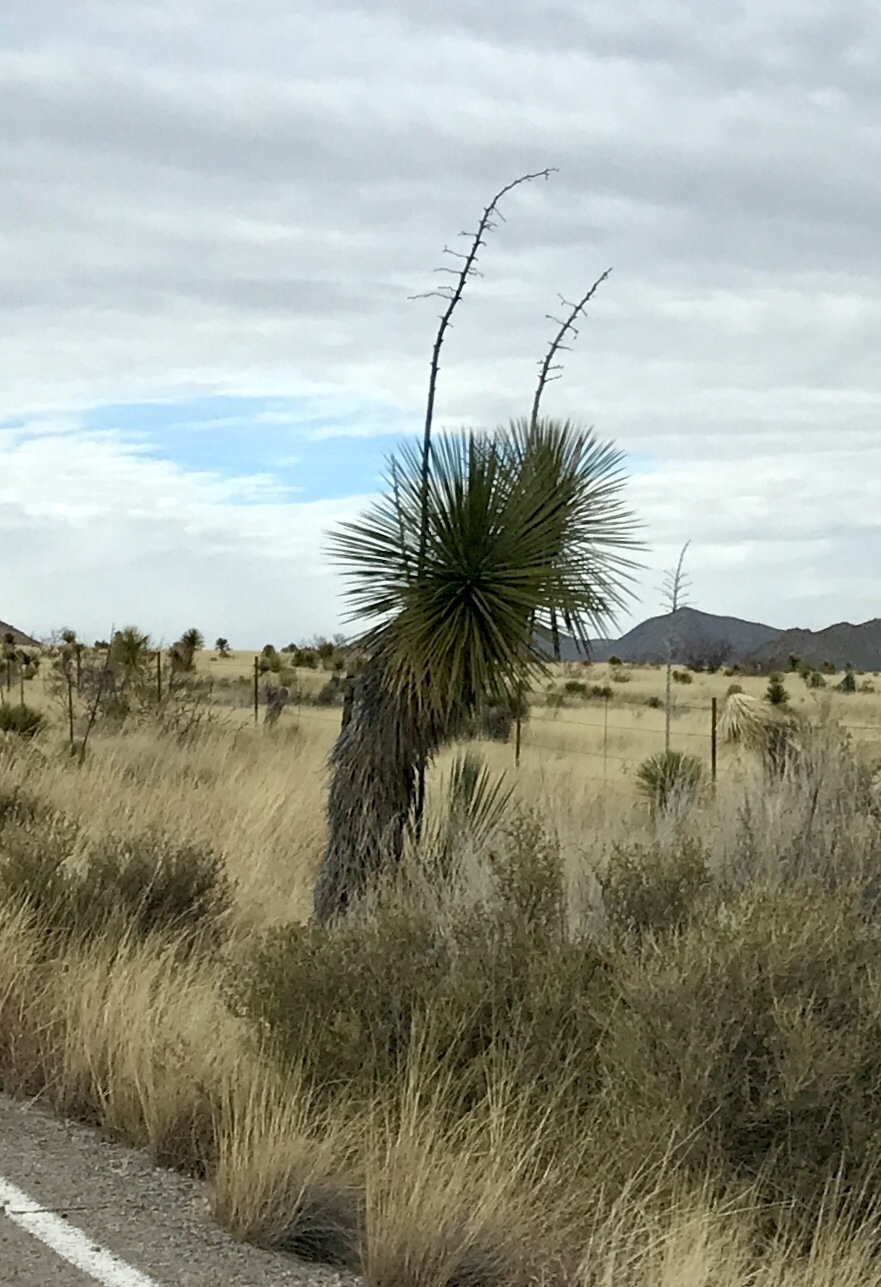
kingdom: Plantae
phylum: Tracheophyta
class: Liliopsida
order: Asparagales
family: Asparagaceae
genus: Yucca
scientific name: Yucca elata
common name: Palmella
